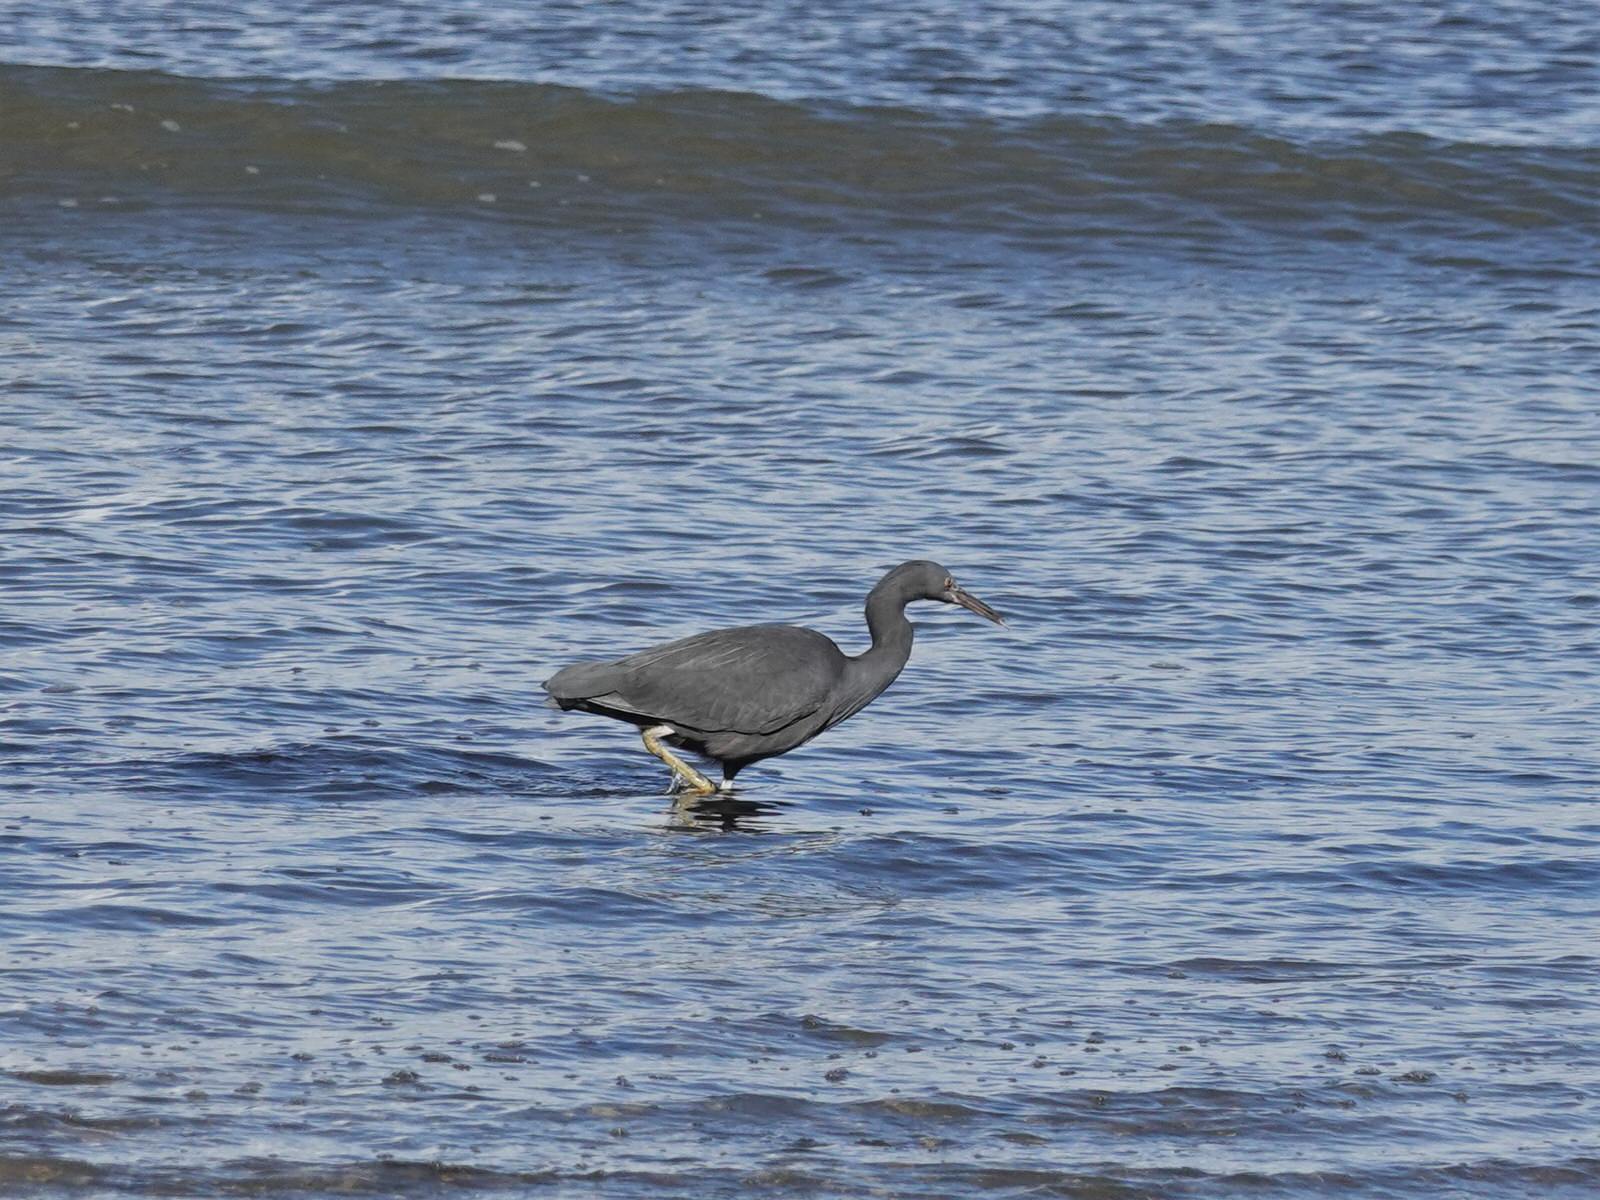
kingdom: Animalia
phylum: Chordata
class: Aves
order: Pelecaniformes
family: Ardeidae
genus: Egretta
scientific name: Egretta sacra
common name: Pacific reef heron
